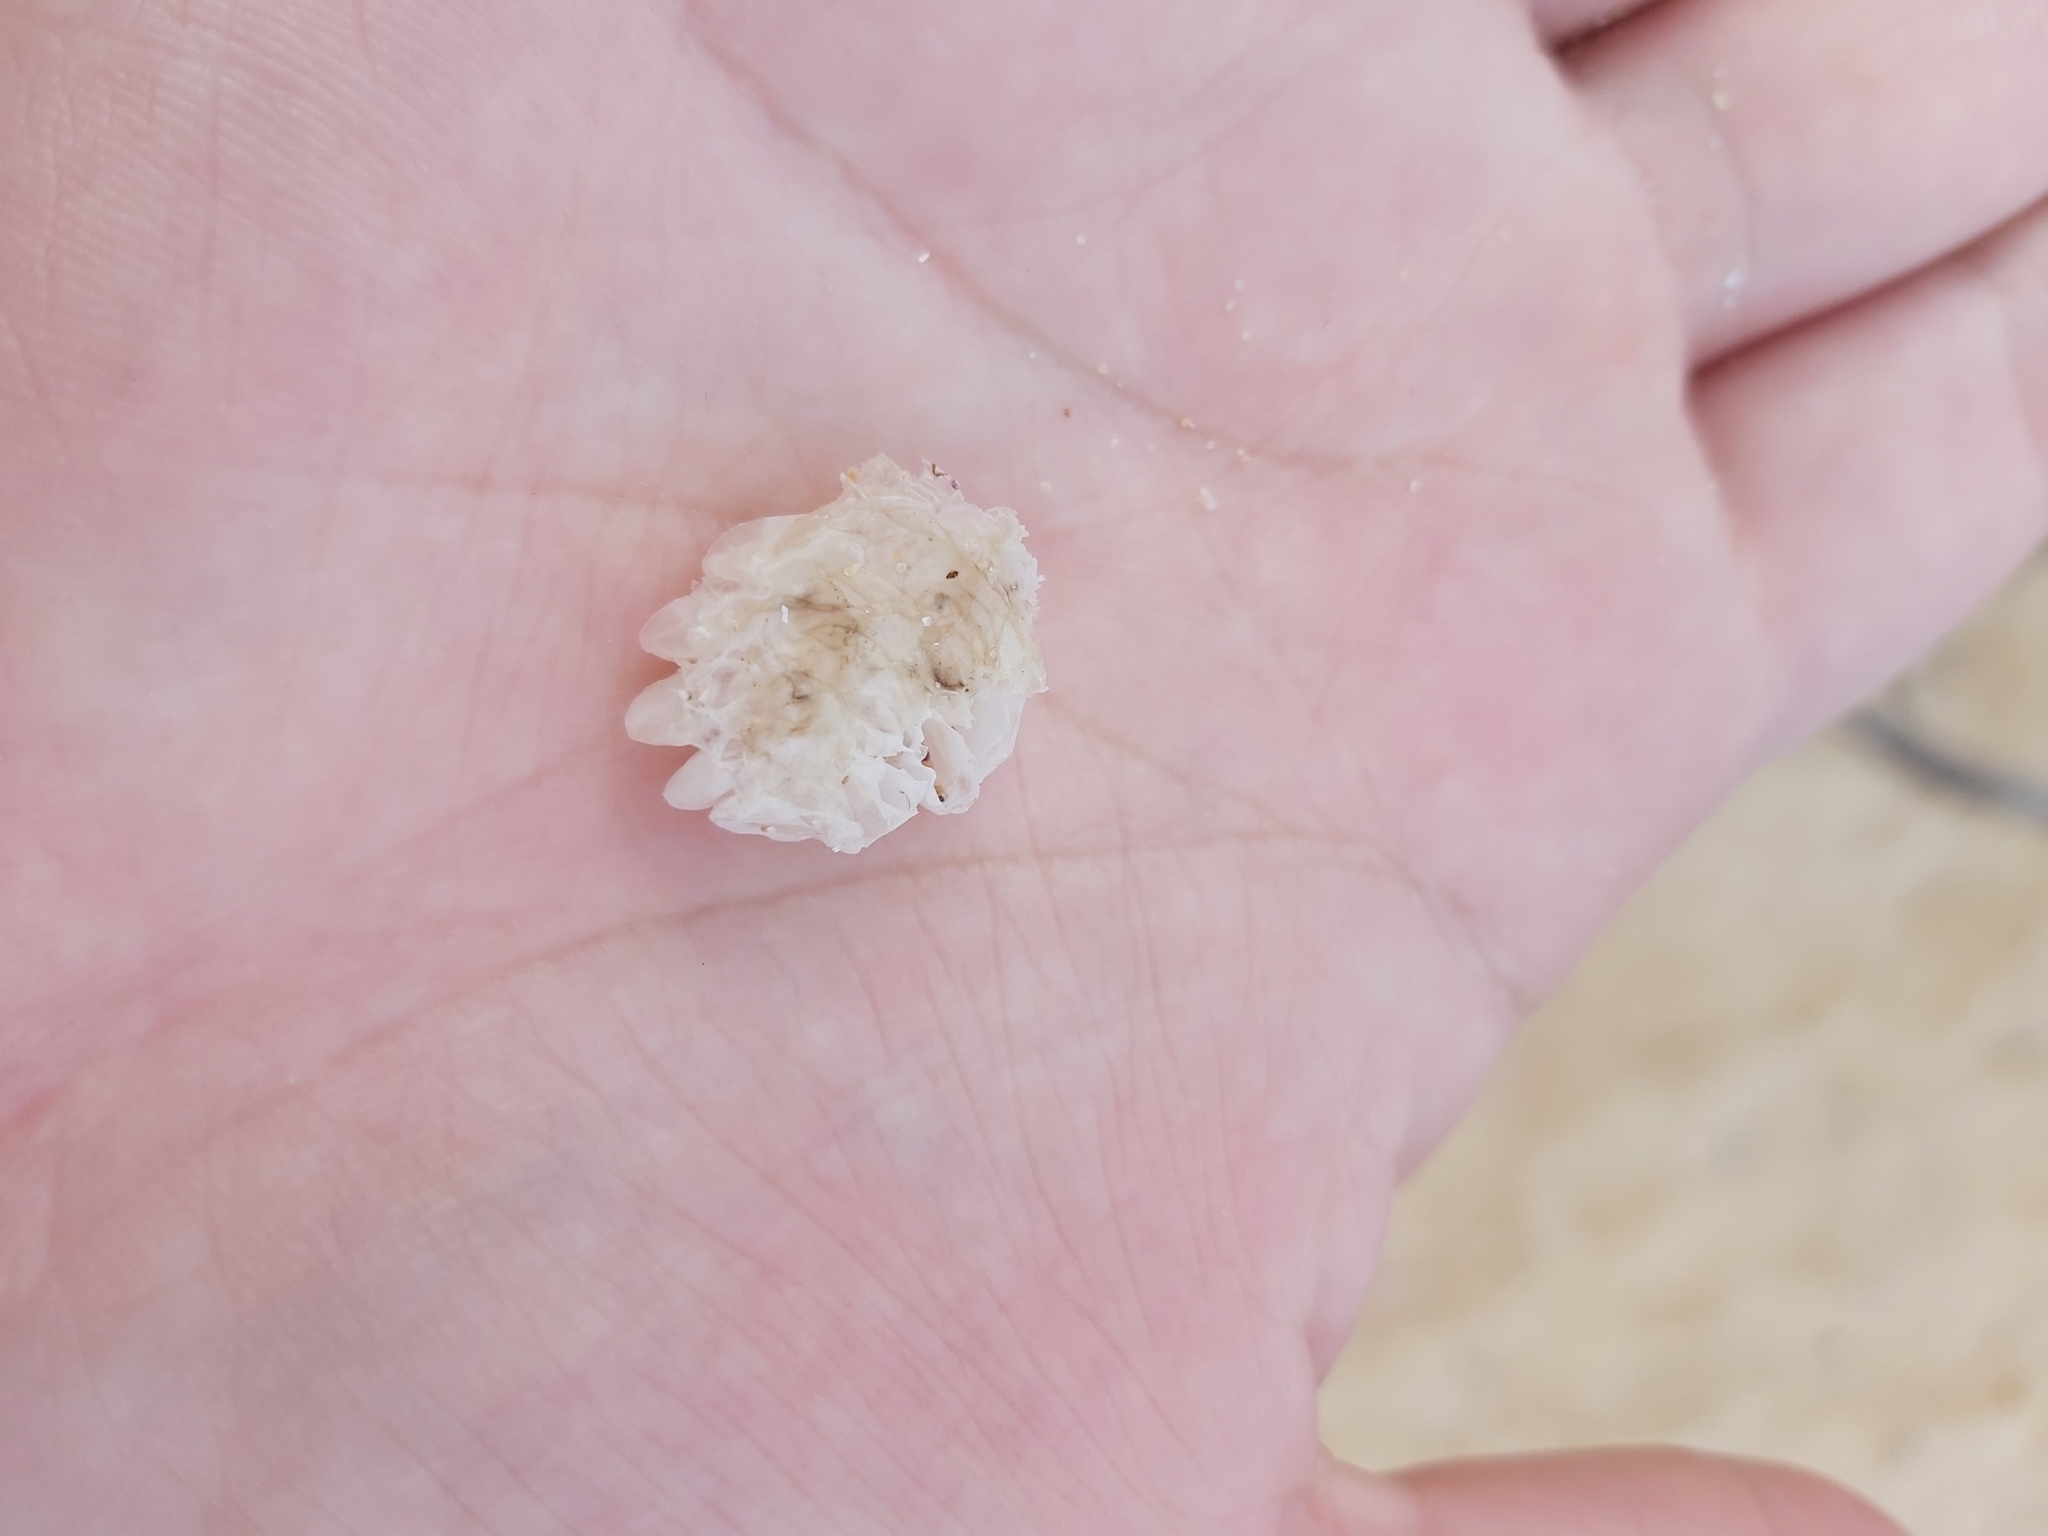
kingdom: Animalia
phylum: Mollusca
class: Gastropoda
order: Neogastropoda
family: Muricidae
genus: Dicathais
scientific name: Dicathais orbita
